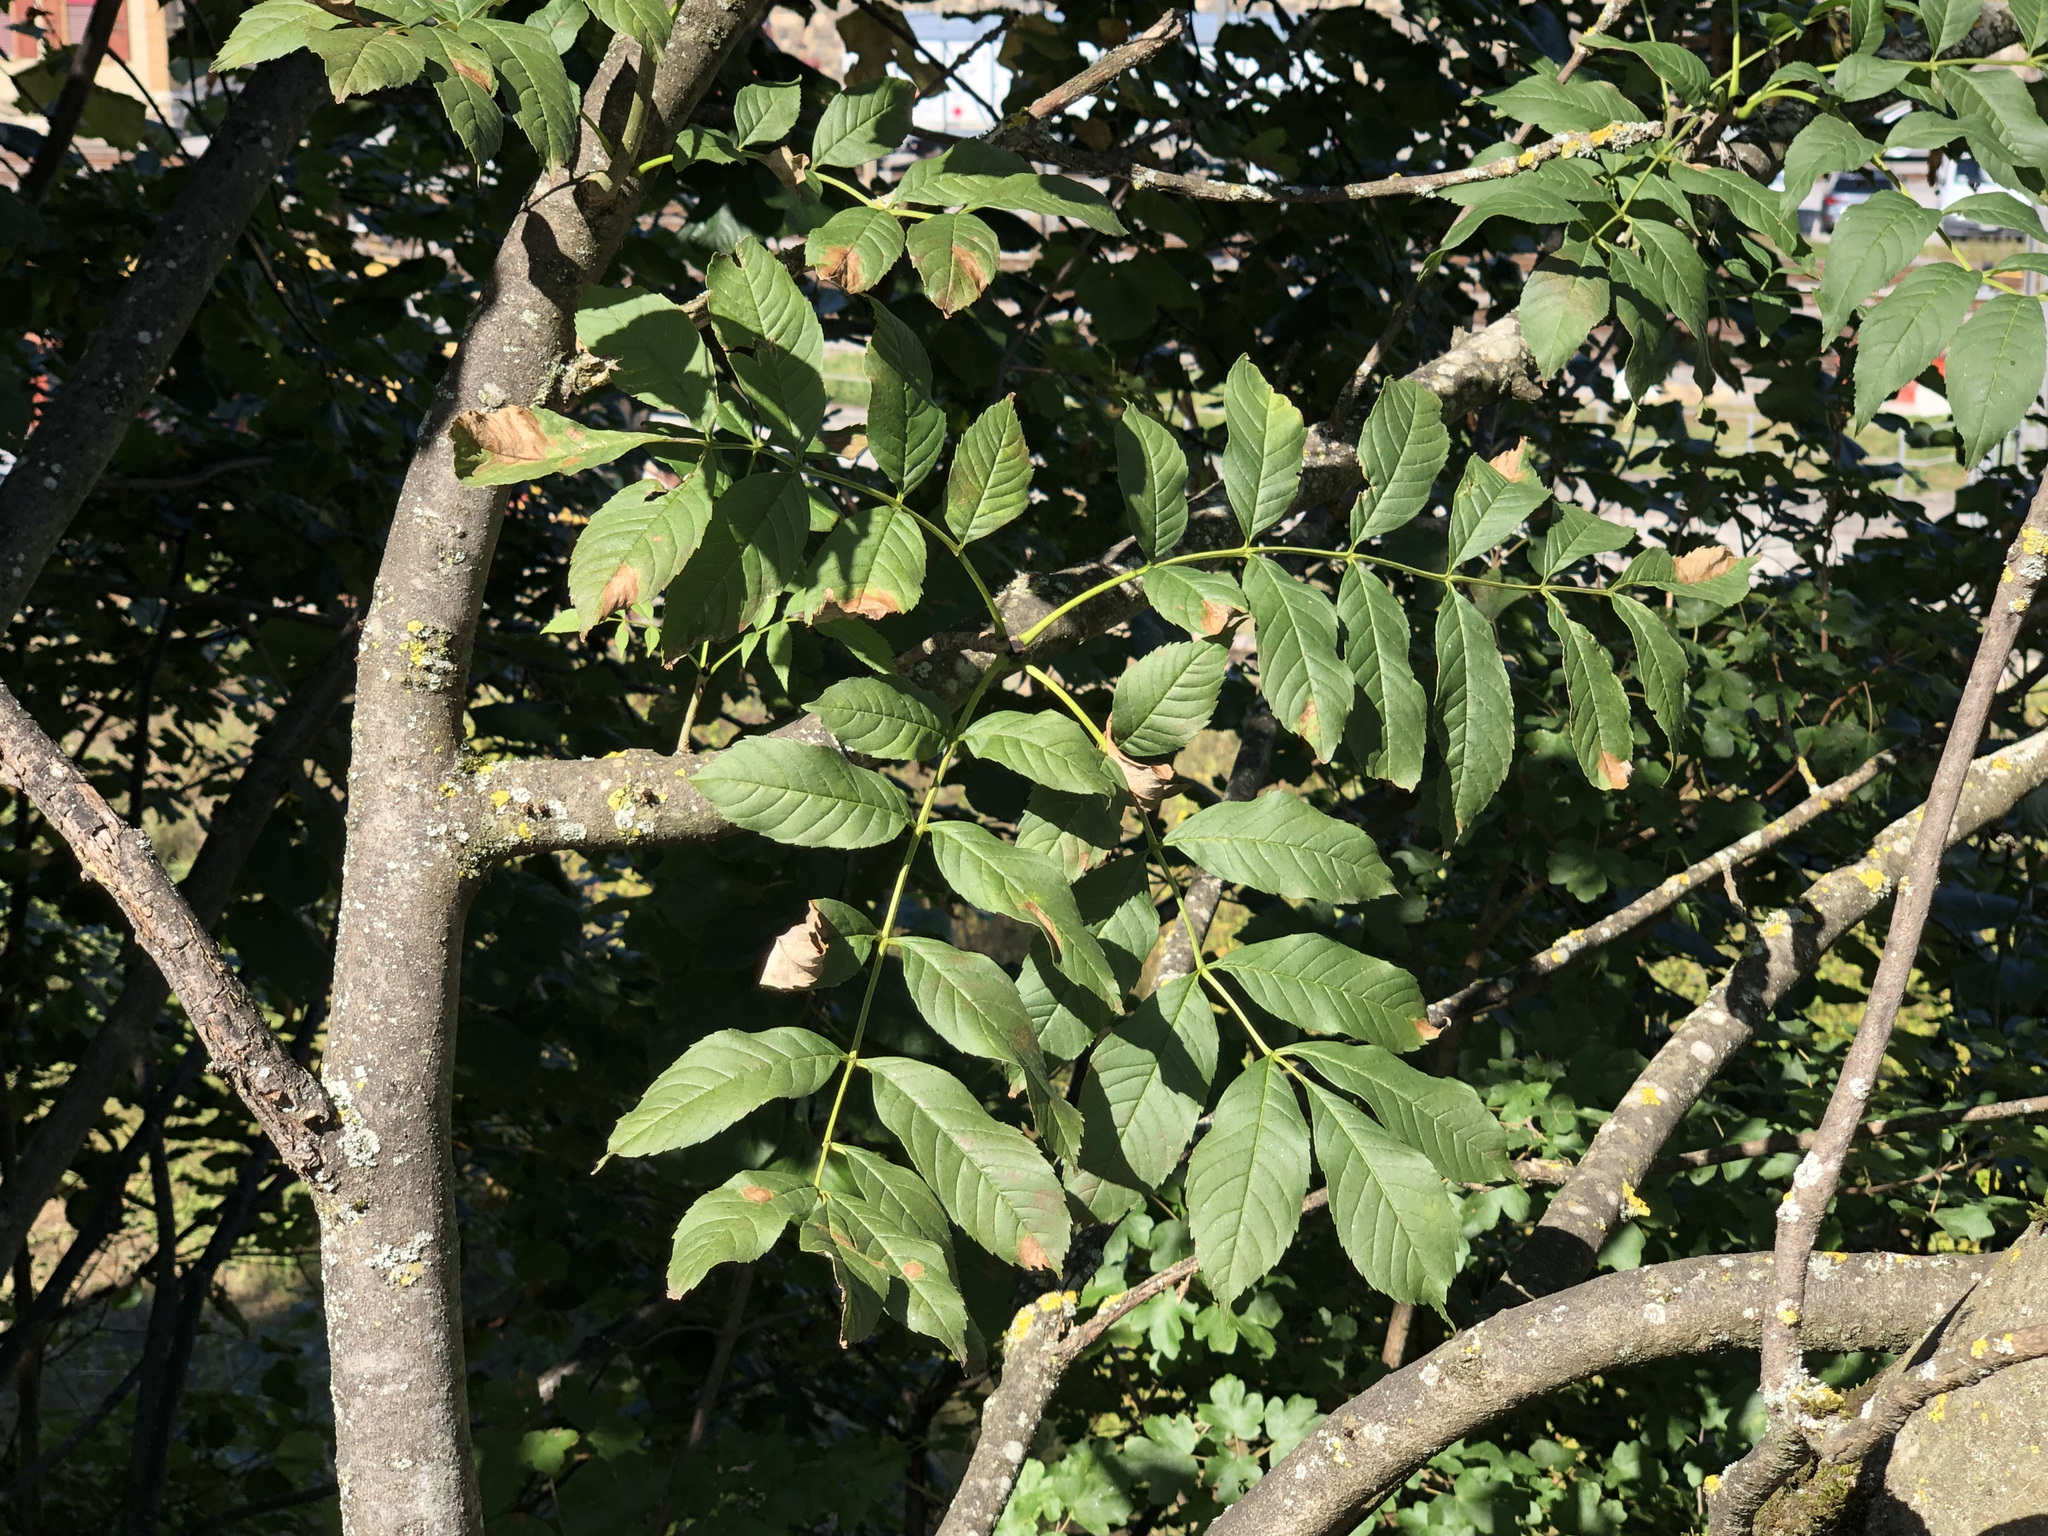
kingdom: Plantae
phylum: Tracheophyta
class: Magnoliopsida
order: Lamiales
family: Oleaceae
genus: Fraxinus
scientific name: Fraxinus excelsior
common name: European ash
